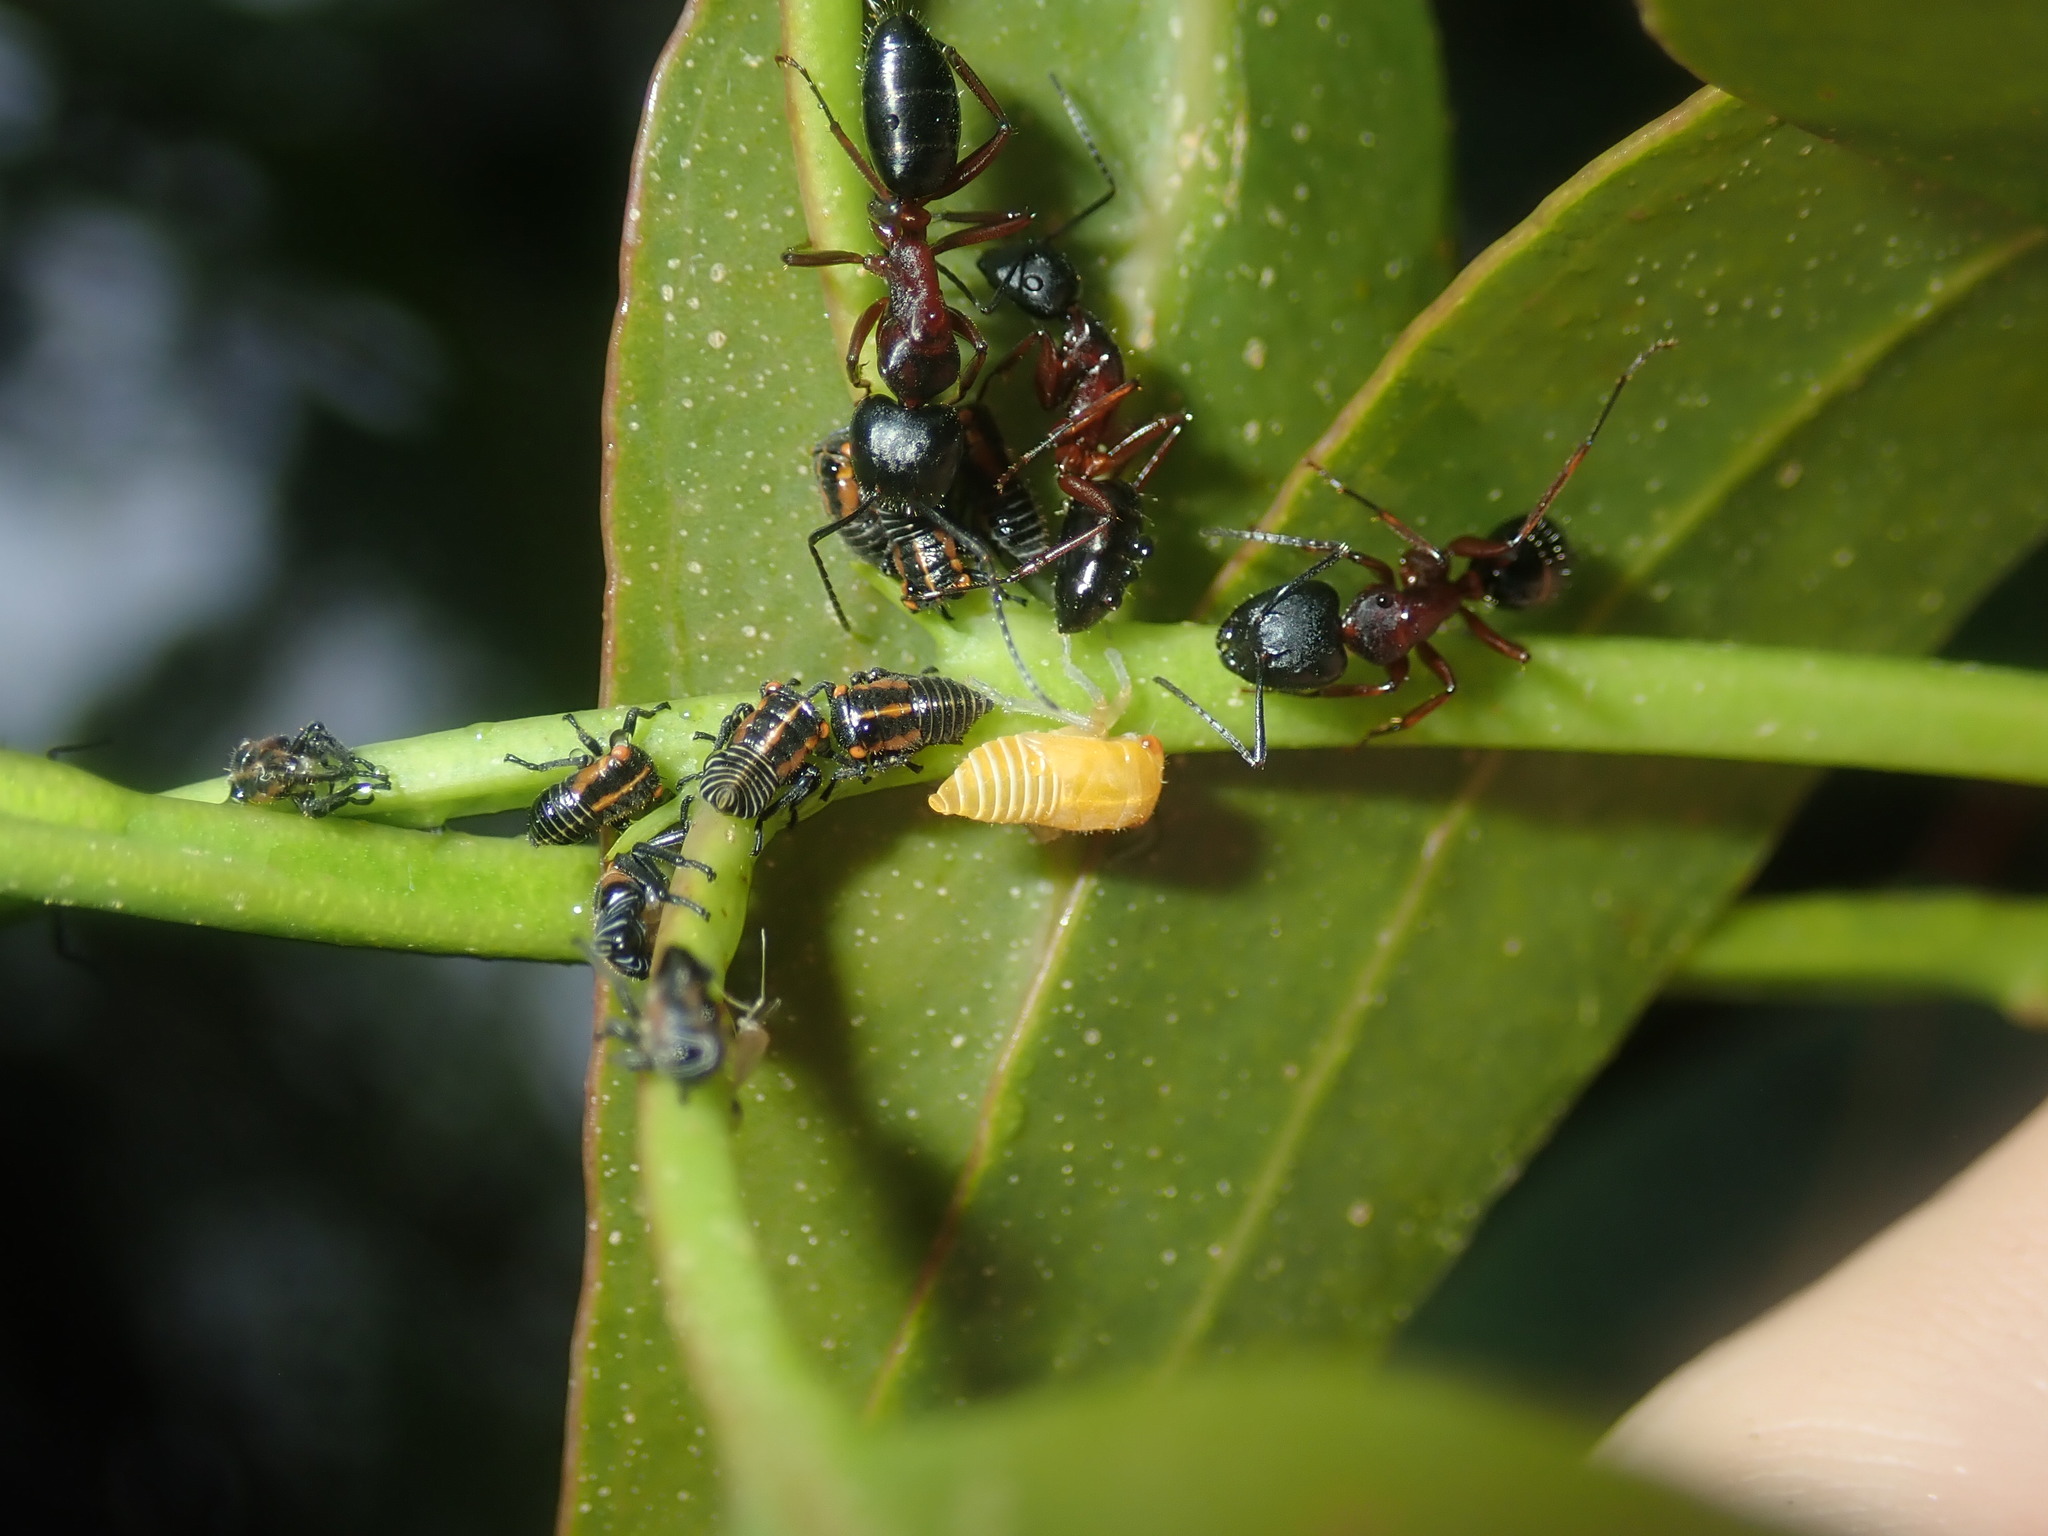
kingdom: Animalia
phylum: Arthropoda
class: Insecta
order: Hymenoptera
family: Formicidae
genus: Camponotus
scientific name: Camponotus innexus
